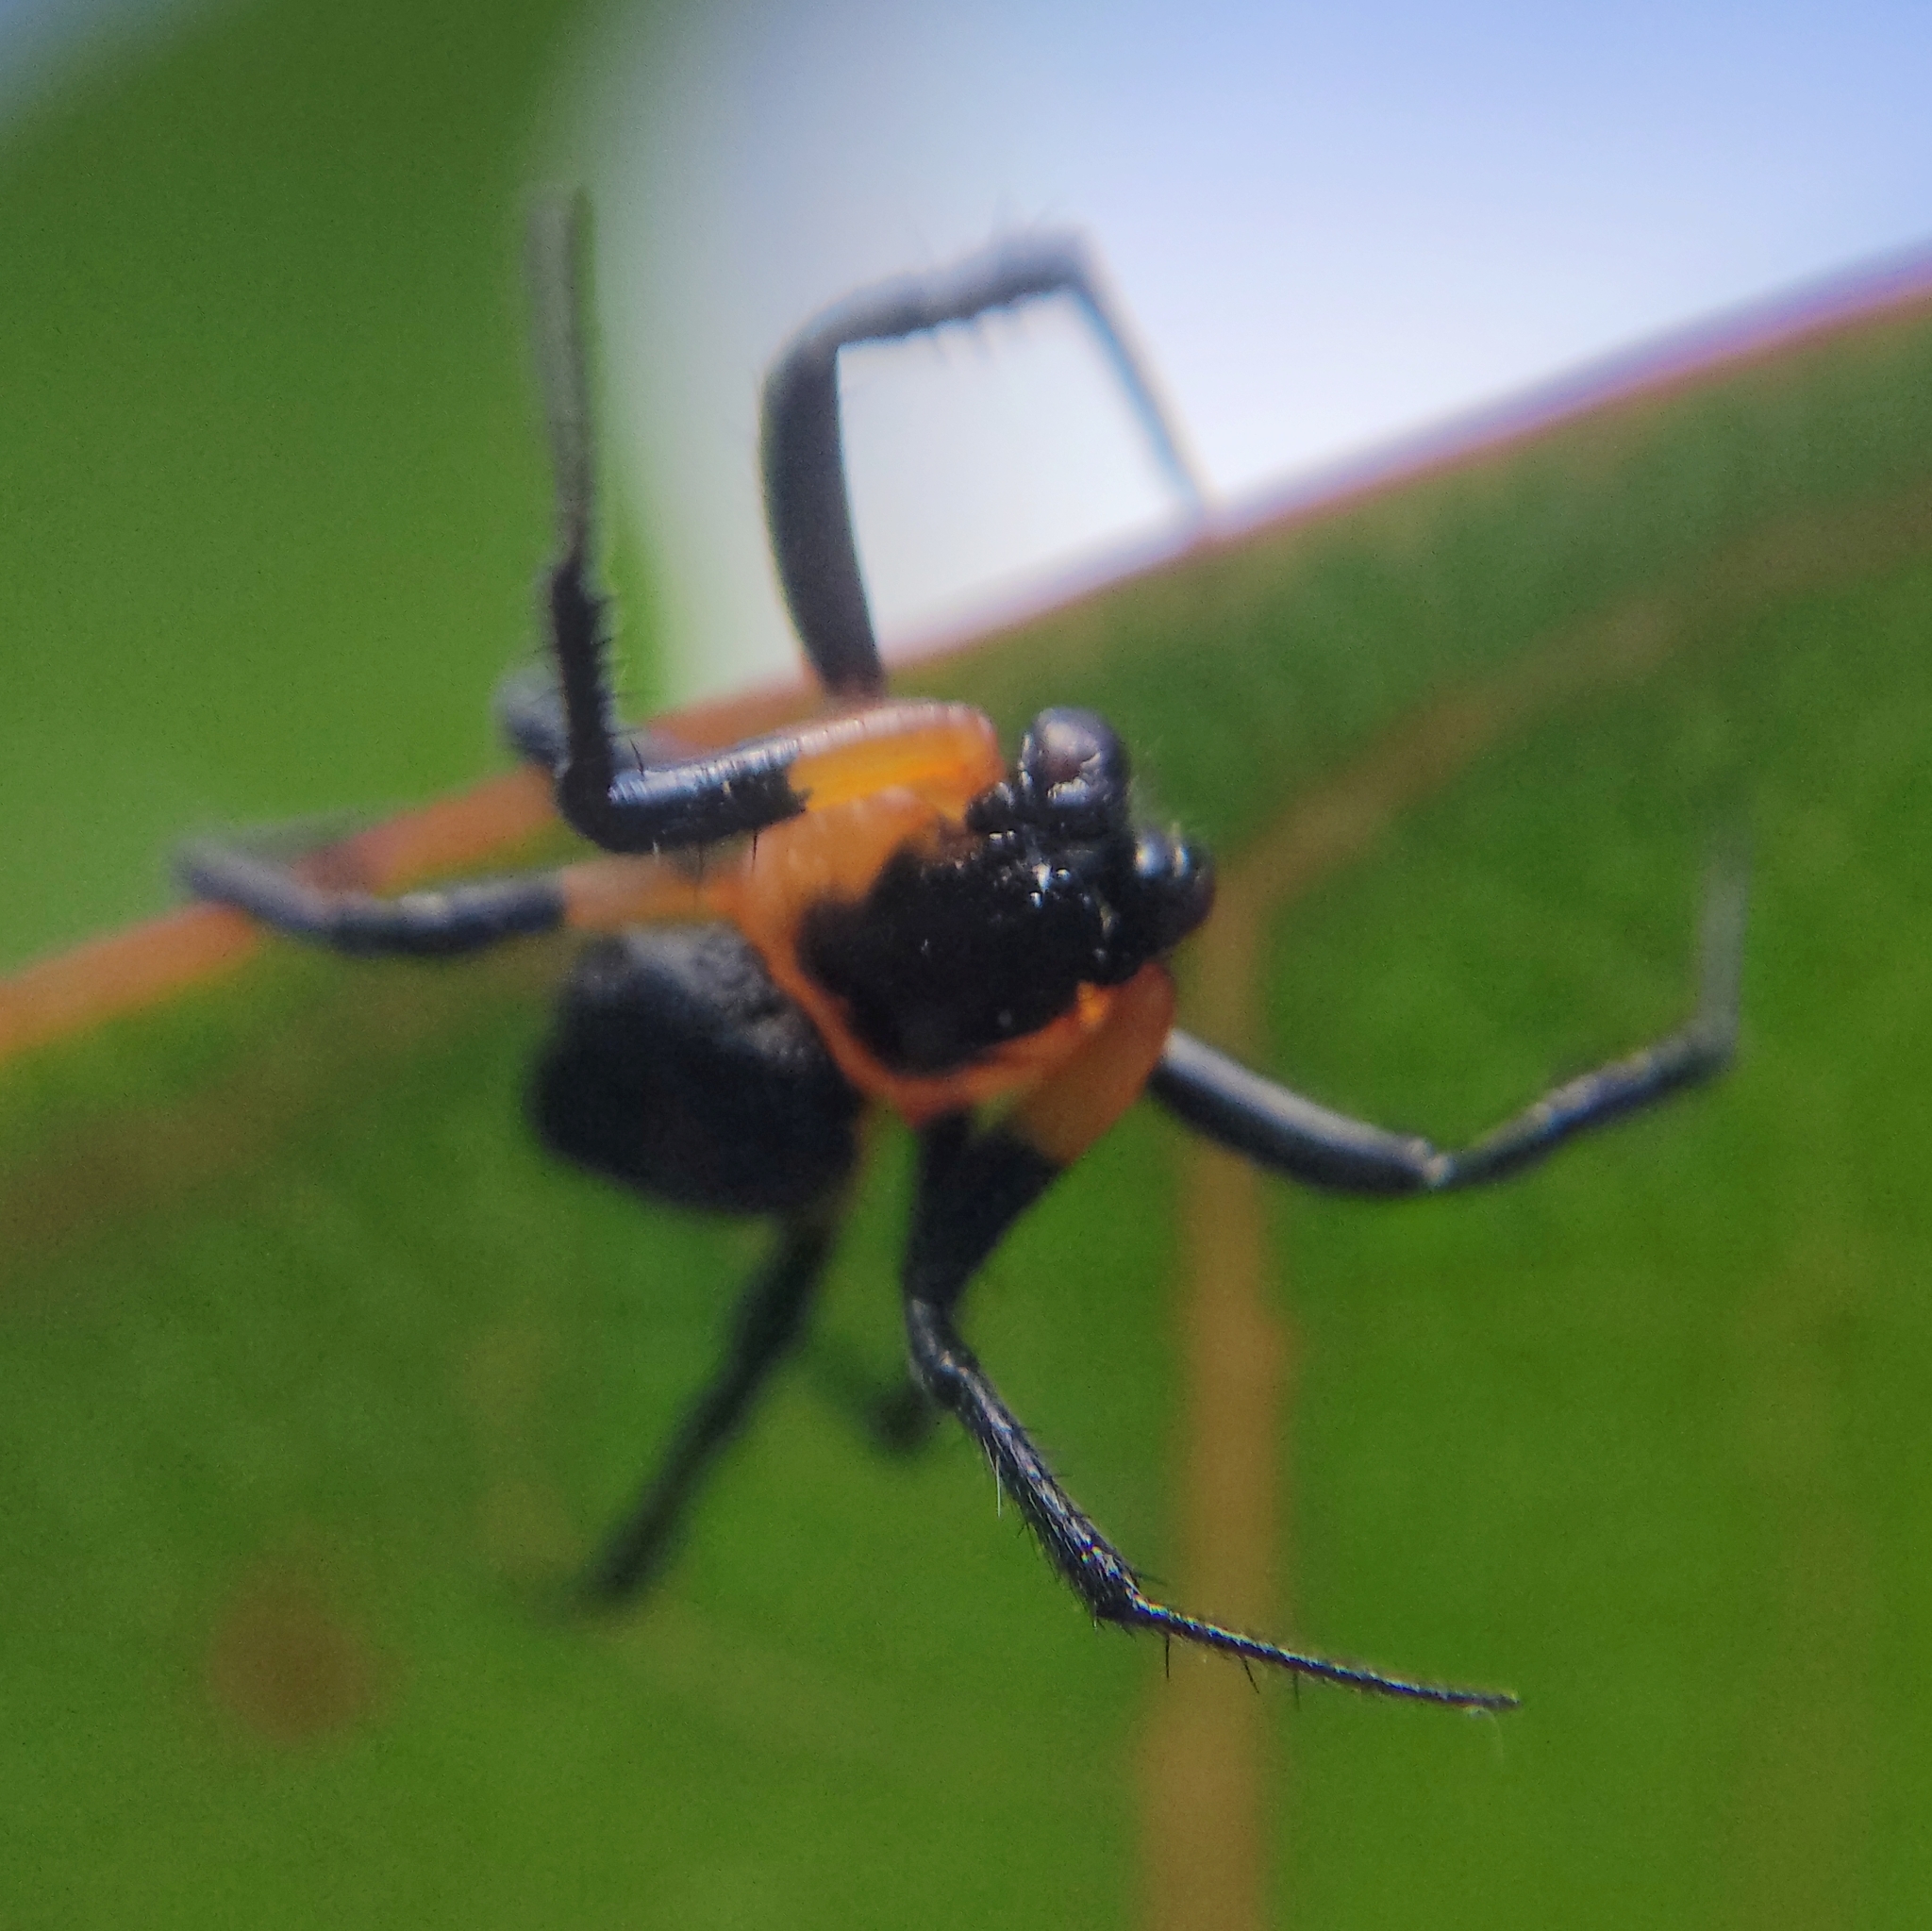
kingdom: Animalia
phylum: Arthropoda
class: Arachnida
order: Araneae
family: Araneidae
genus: Alpaida
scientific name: Alpaida acuta
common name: Orb weavers
